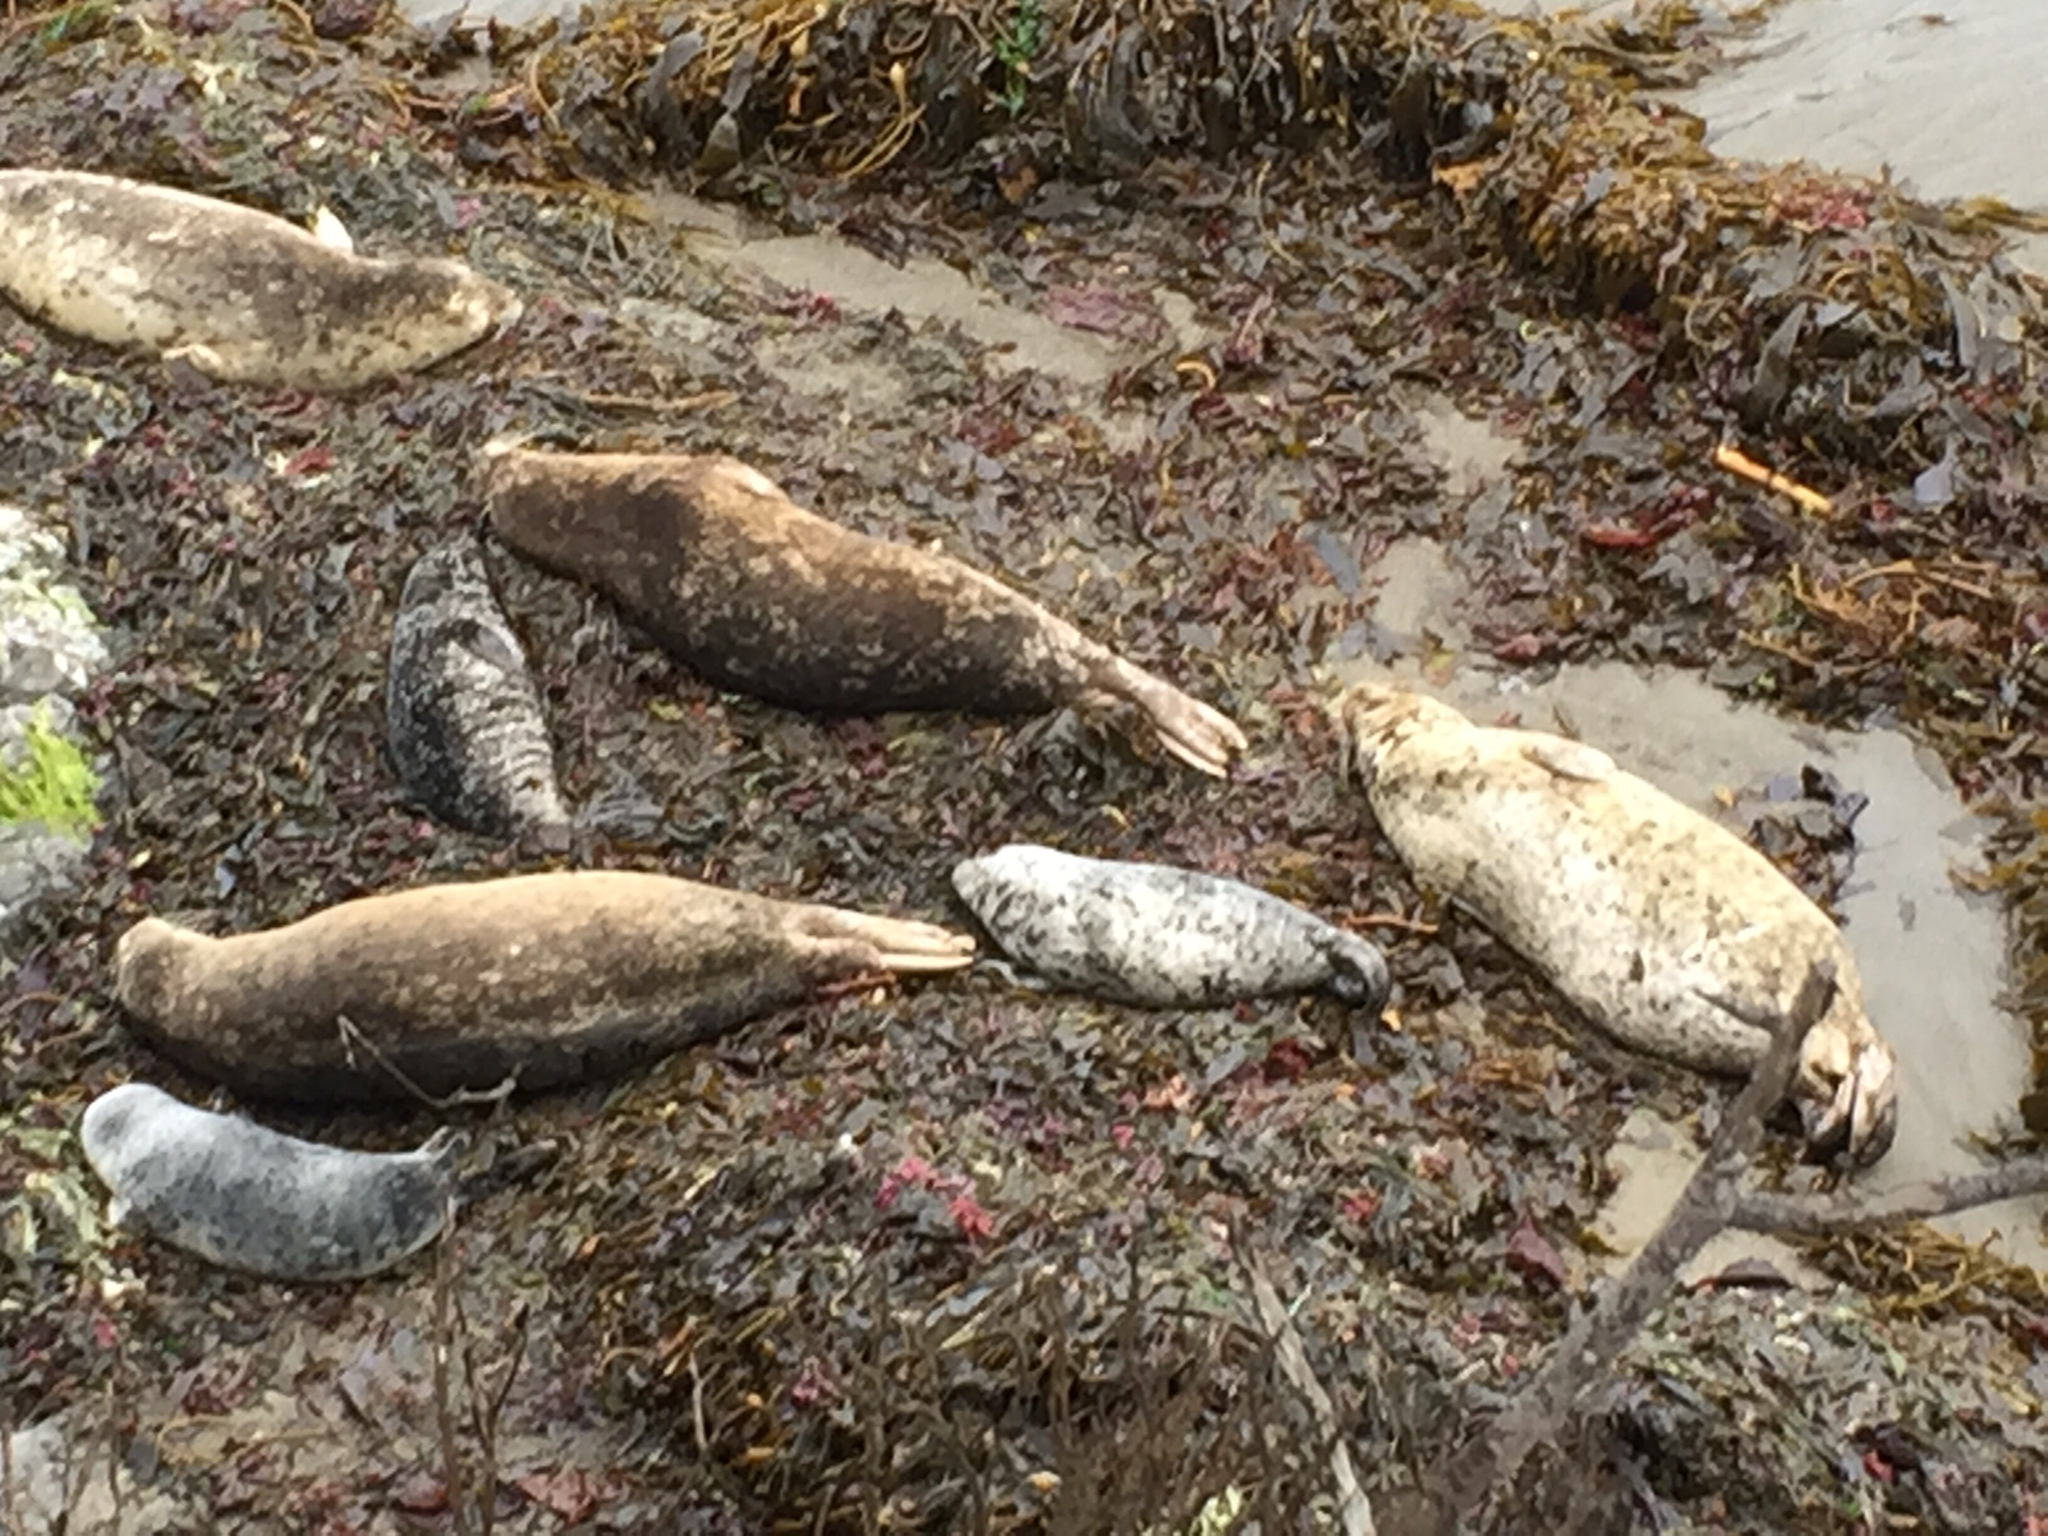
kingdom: Animalia
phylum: Chordata
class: Mammalia
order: Carnivora
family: Phocidae
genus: Phoca
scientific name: Phoca vitulina
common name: Harbor seal
